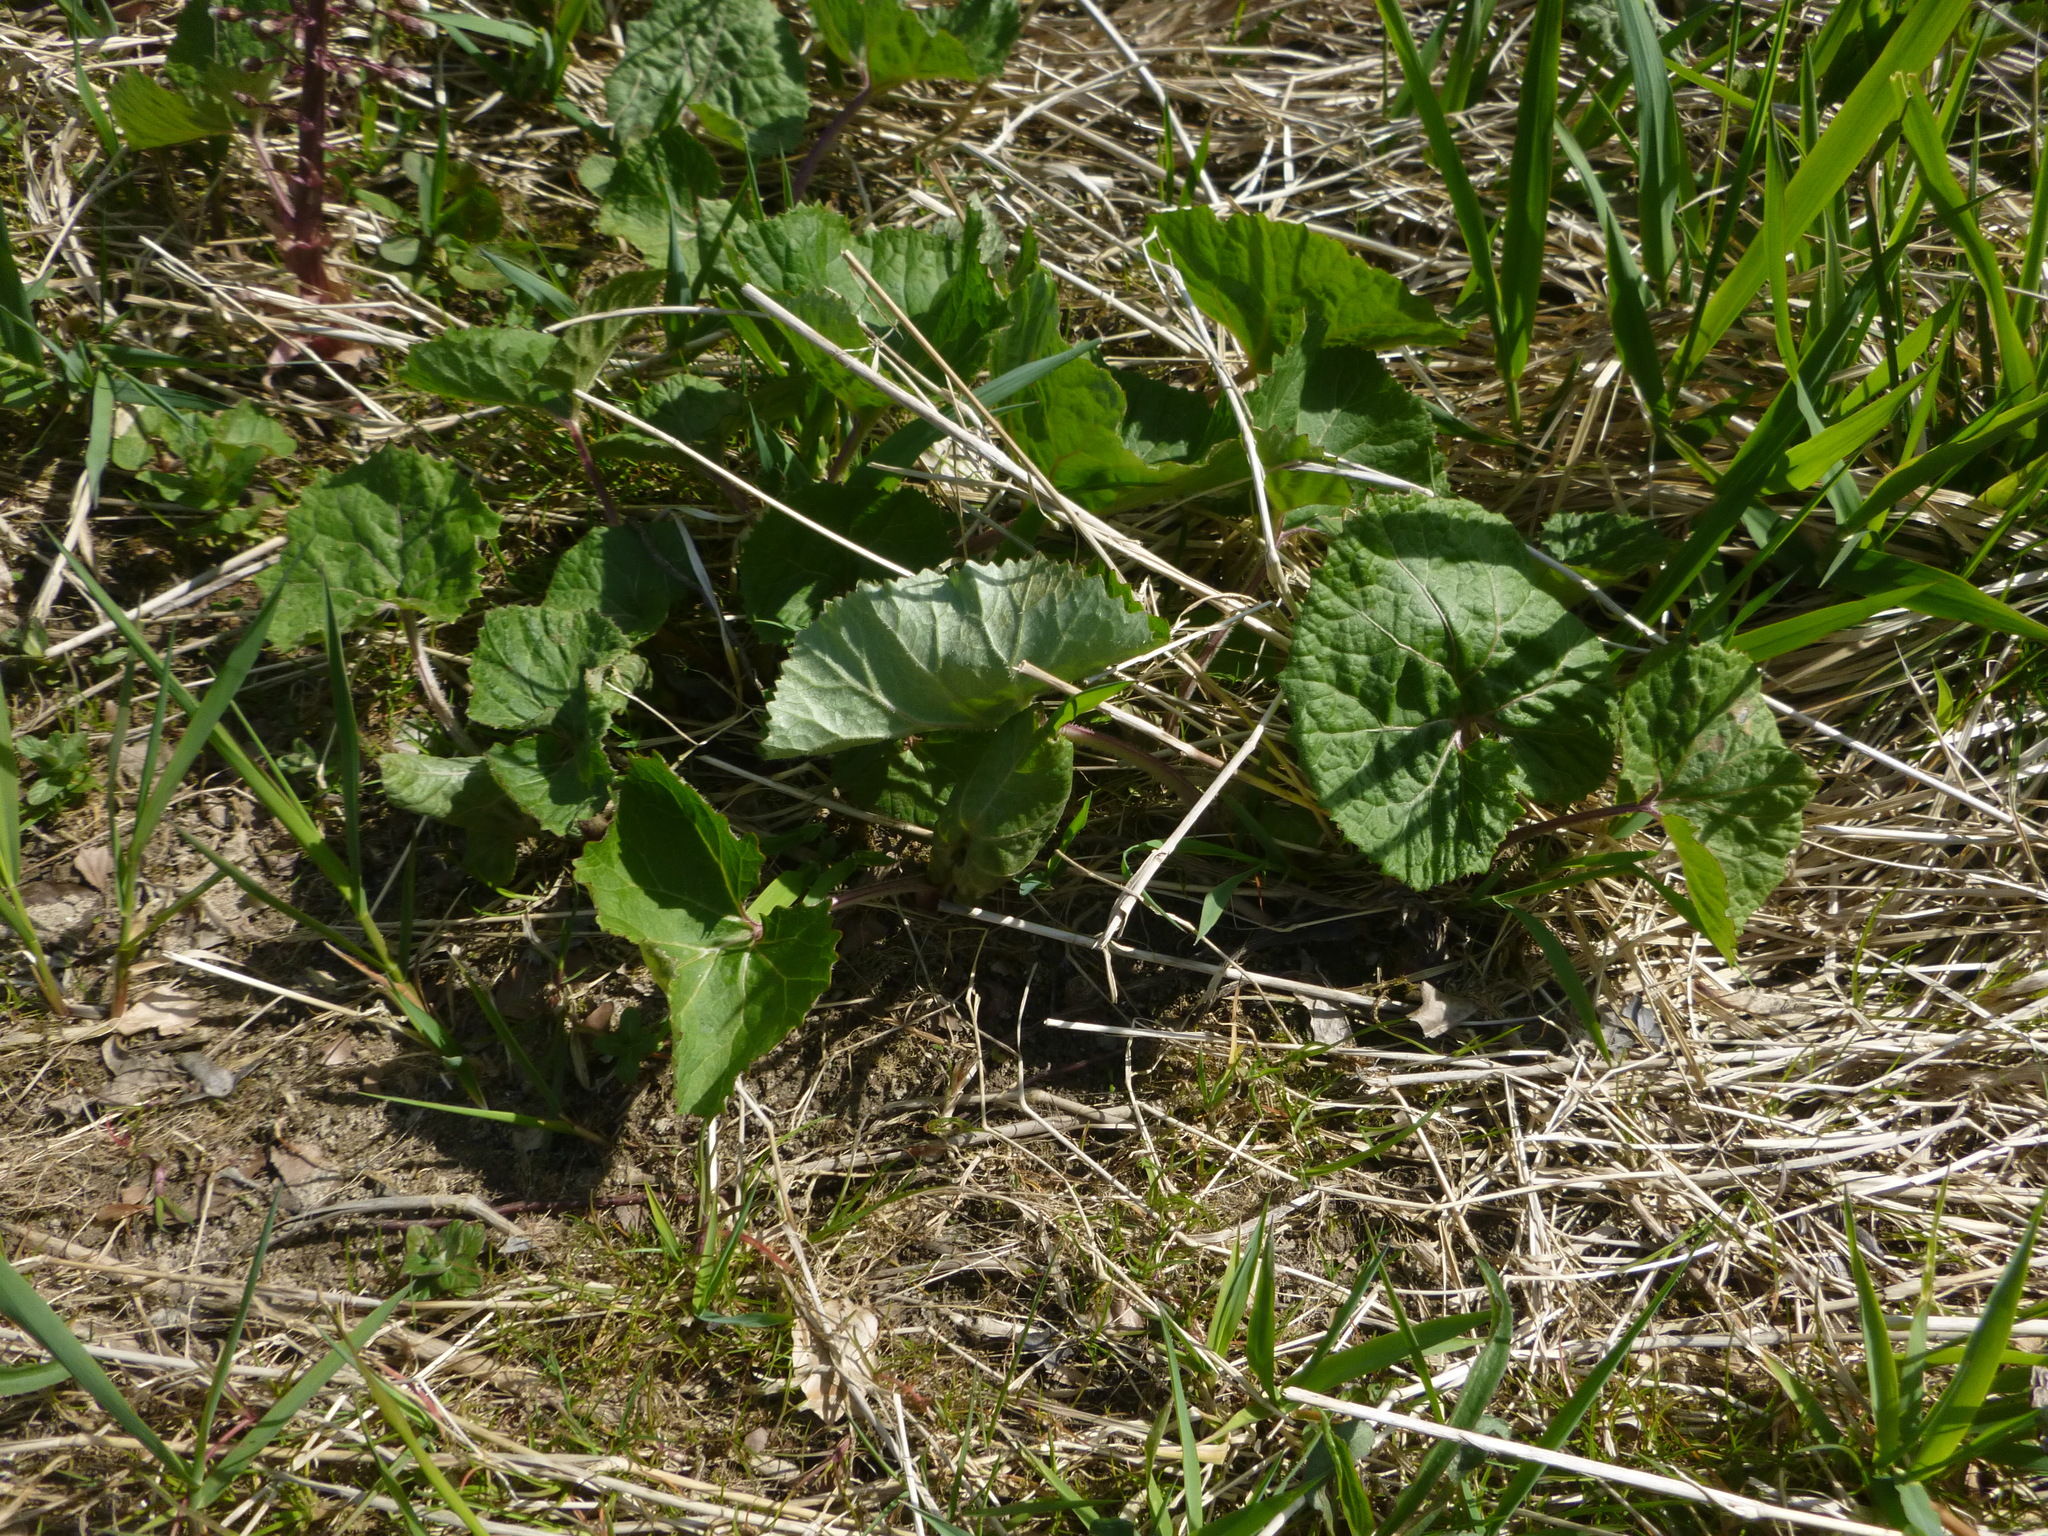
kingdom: Plantae
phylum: Tracheophyta
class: Magnoliopsida
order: Asterales
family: Asteraceae
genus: Petasites
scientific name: Petasites hybridus
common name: Butterbur
